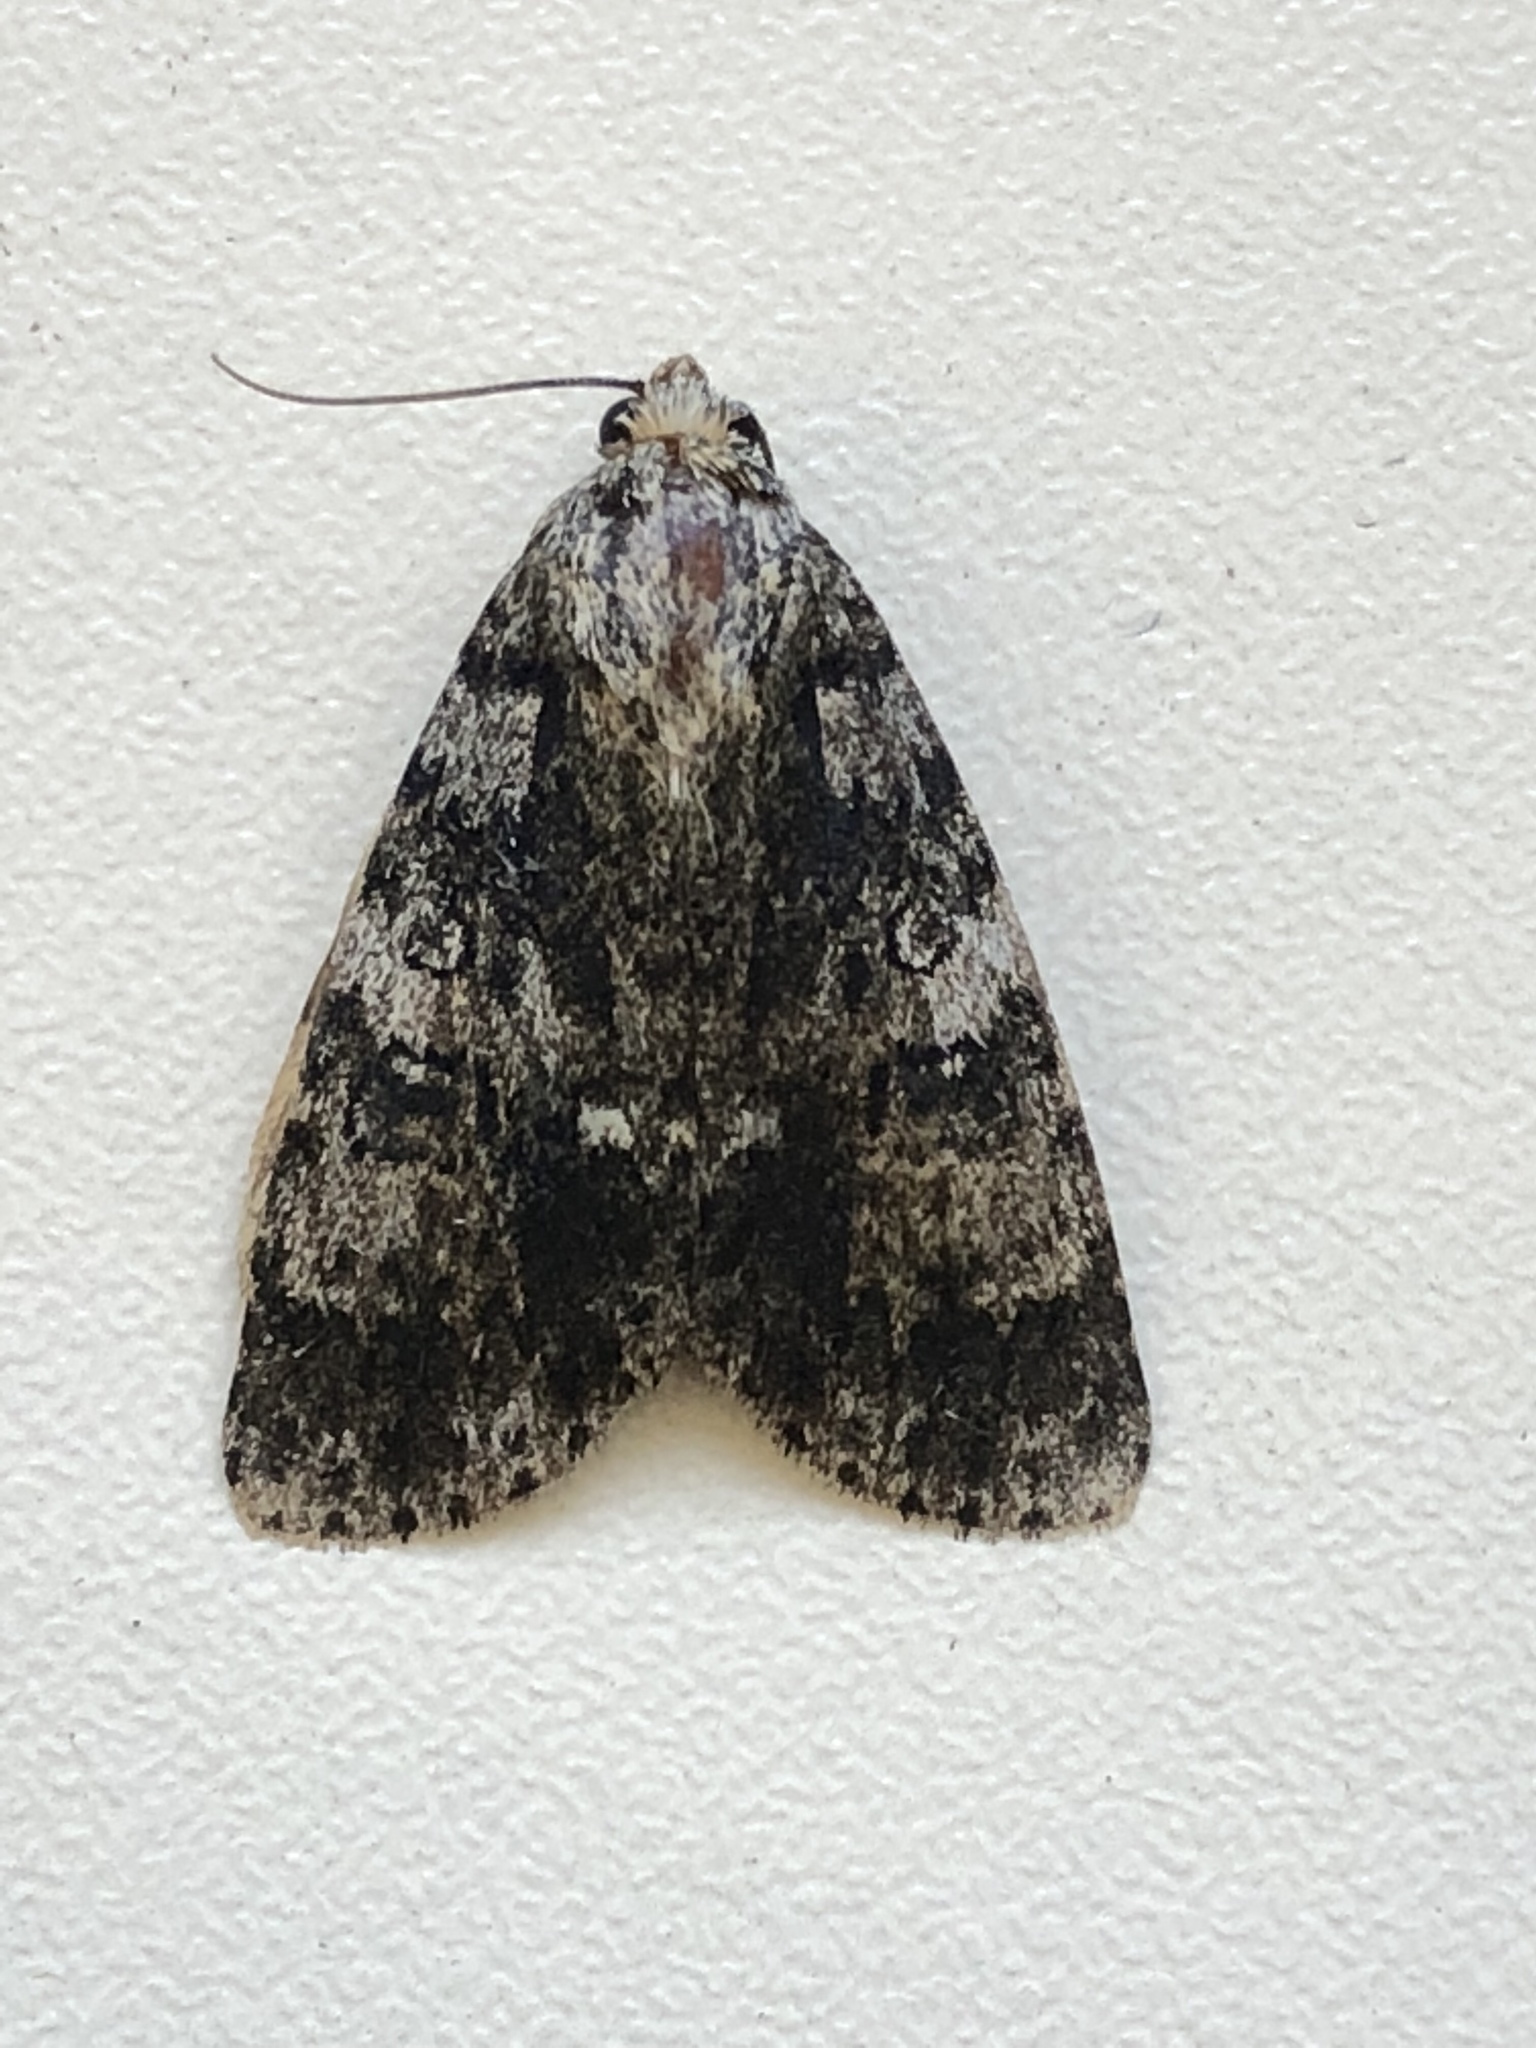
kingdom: Animalia
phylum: Arthropoda
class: Insecta
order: Lepidoptera
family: Noctuidae
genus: Acronicta
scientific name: Acronicta rumicis
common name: Knot grass
